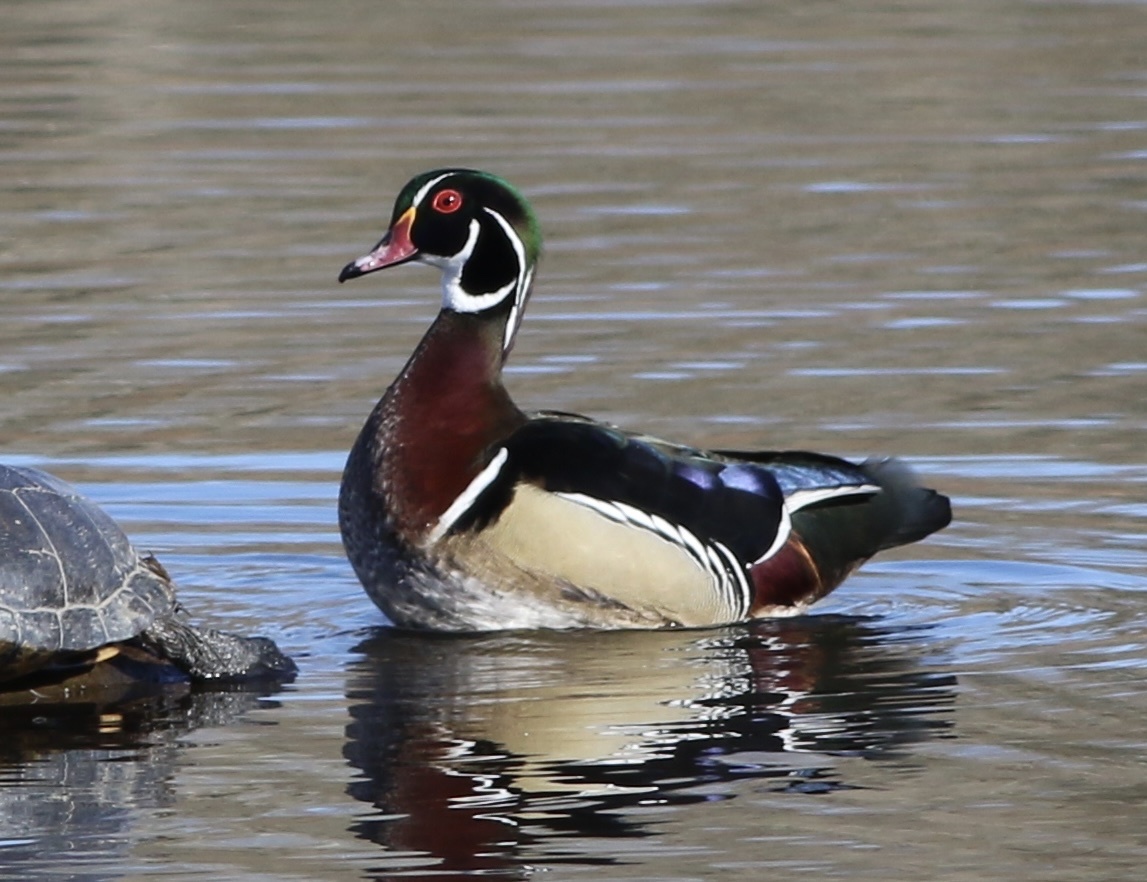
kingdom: Animalia
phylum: Chordata
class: Aves
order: Anseriformes
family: Anatidae
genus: Aix
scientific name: Aix sponsa
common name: Wood duck
